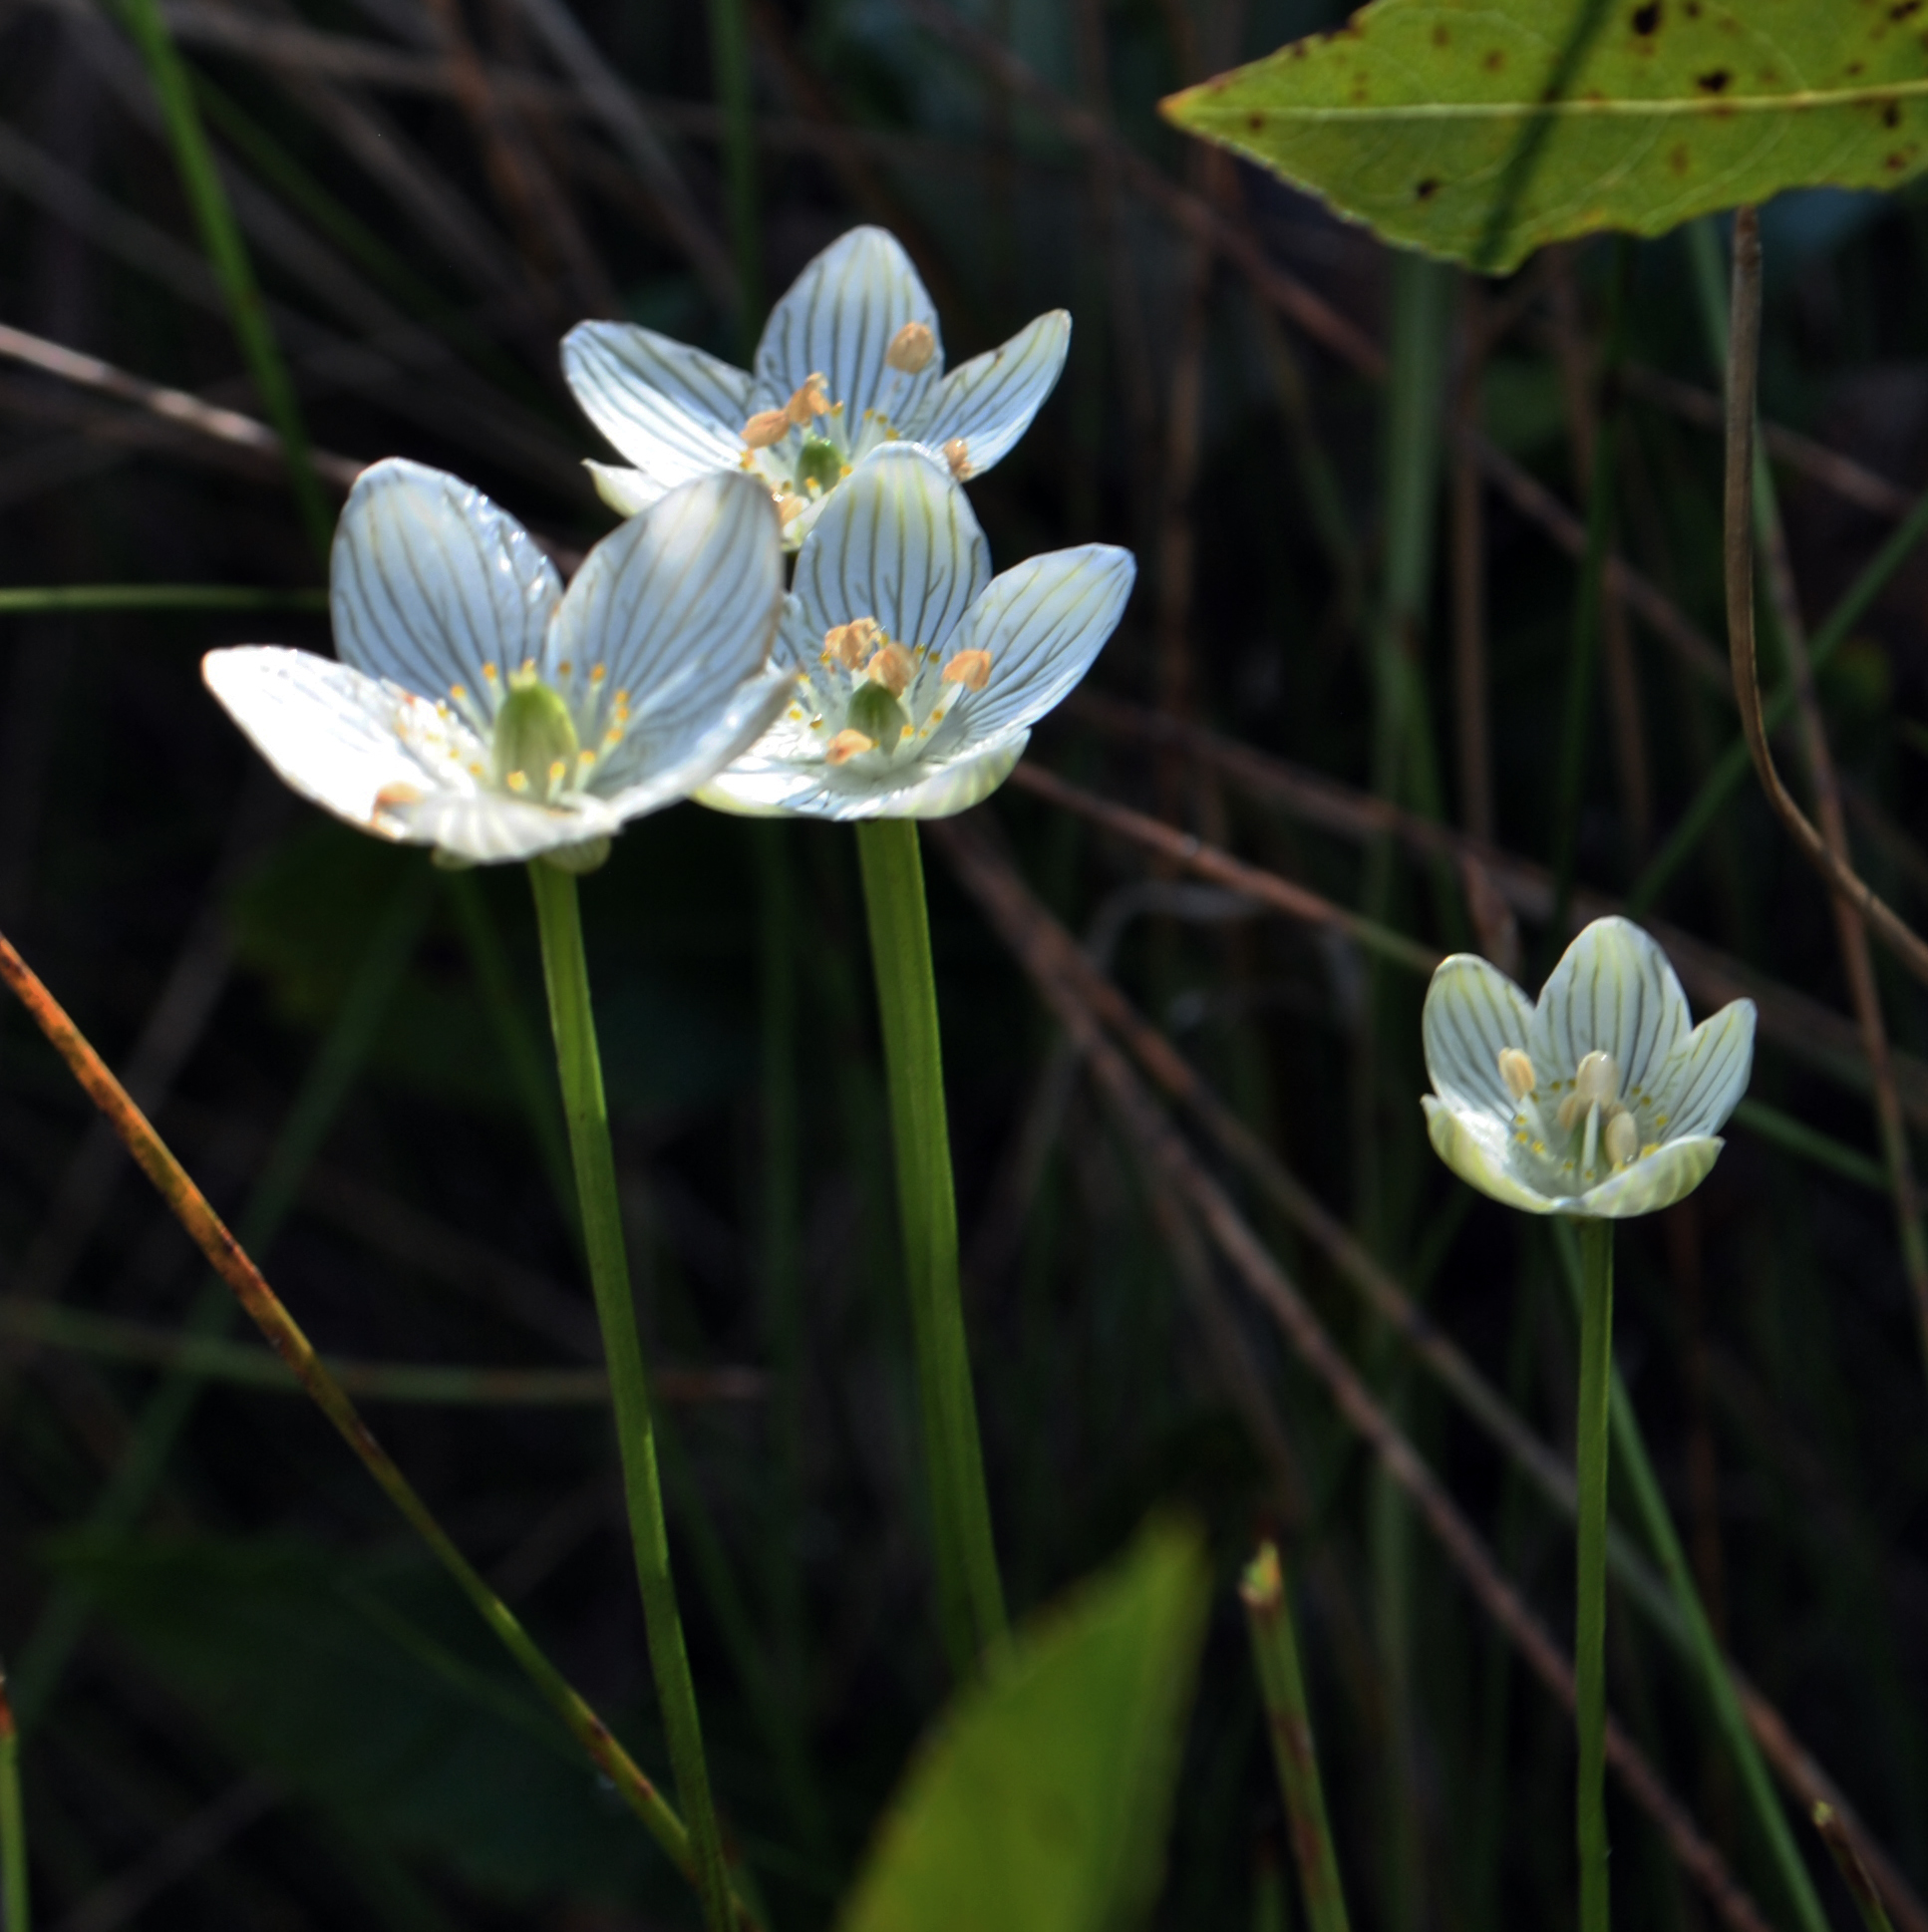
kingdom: Plantae
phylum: Tracheophyta
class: Magnoliopsida
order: Celastrales
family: Parnassiaceae
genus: Parnassia
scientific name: Parnassia glauca
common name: American grass-of-parnassus
